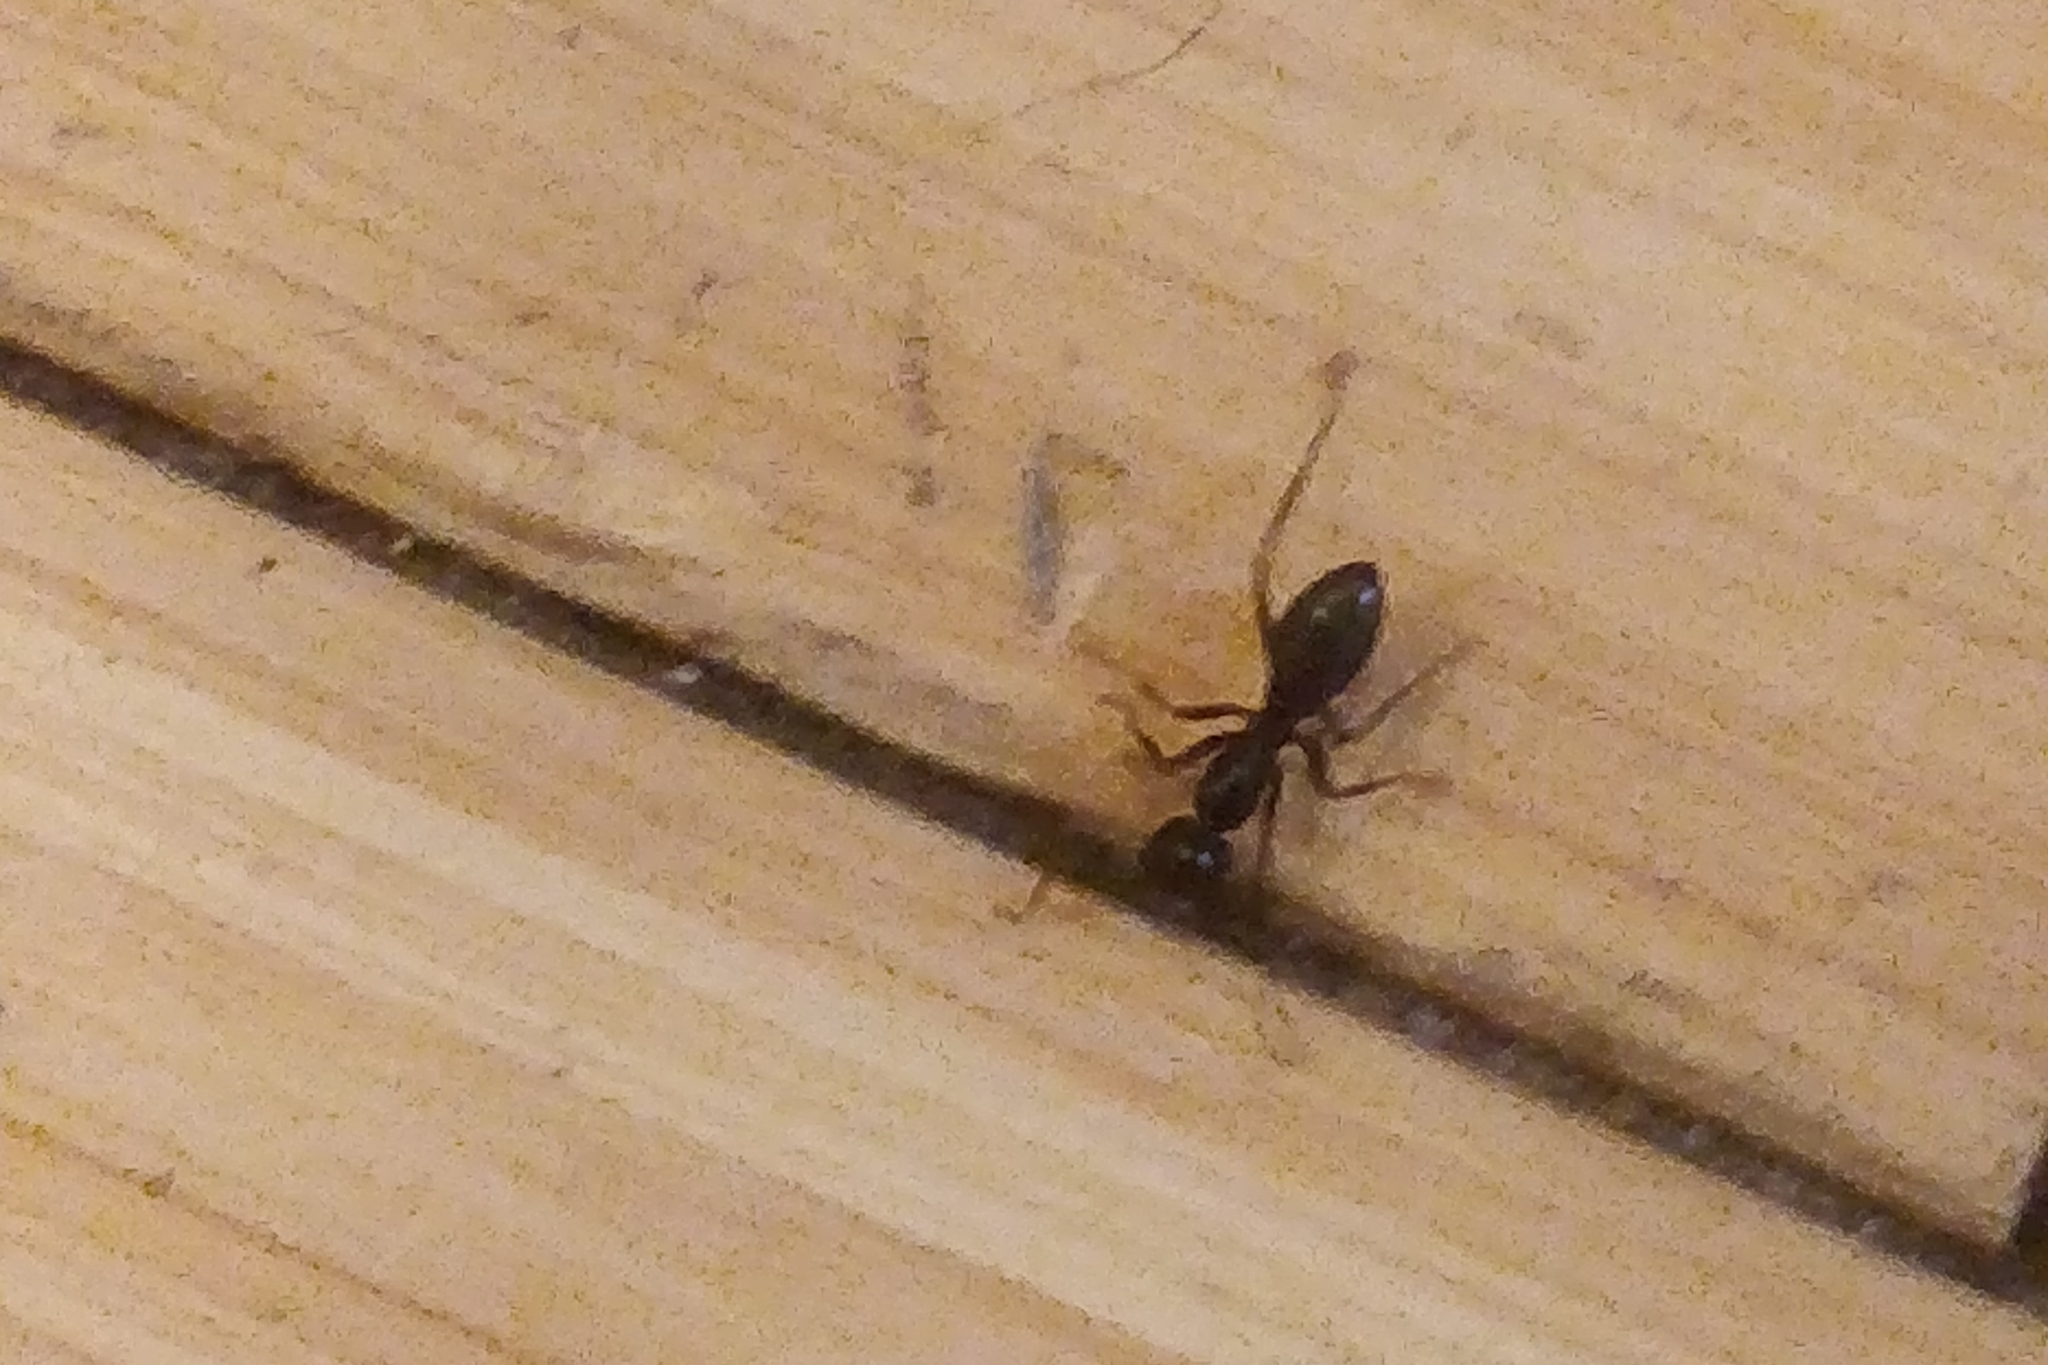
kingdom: Animalia
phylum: Arthropoda
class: Insecta
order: Hymenoptera
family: Formicidae
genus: Camponotus
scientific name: Camponotus pennsylvanicus
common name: Black carpenter ant
